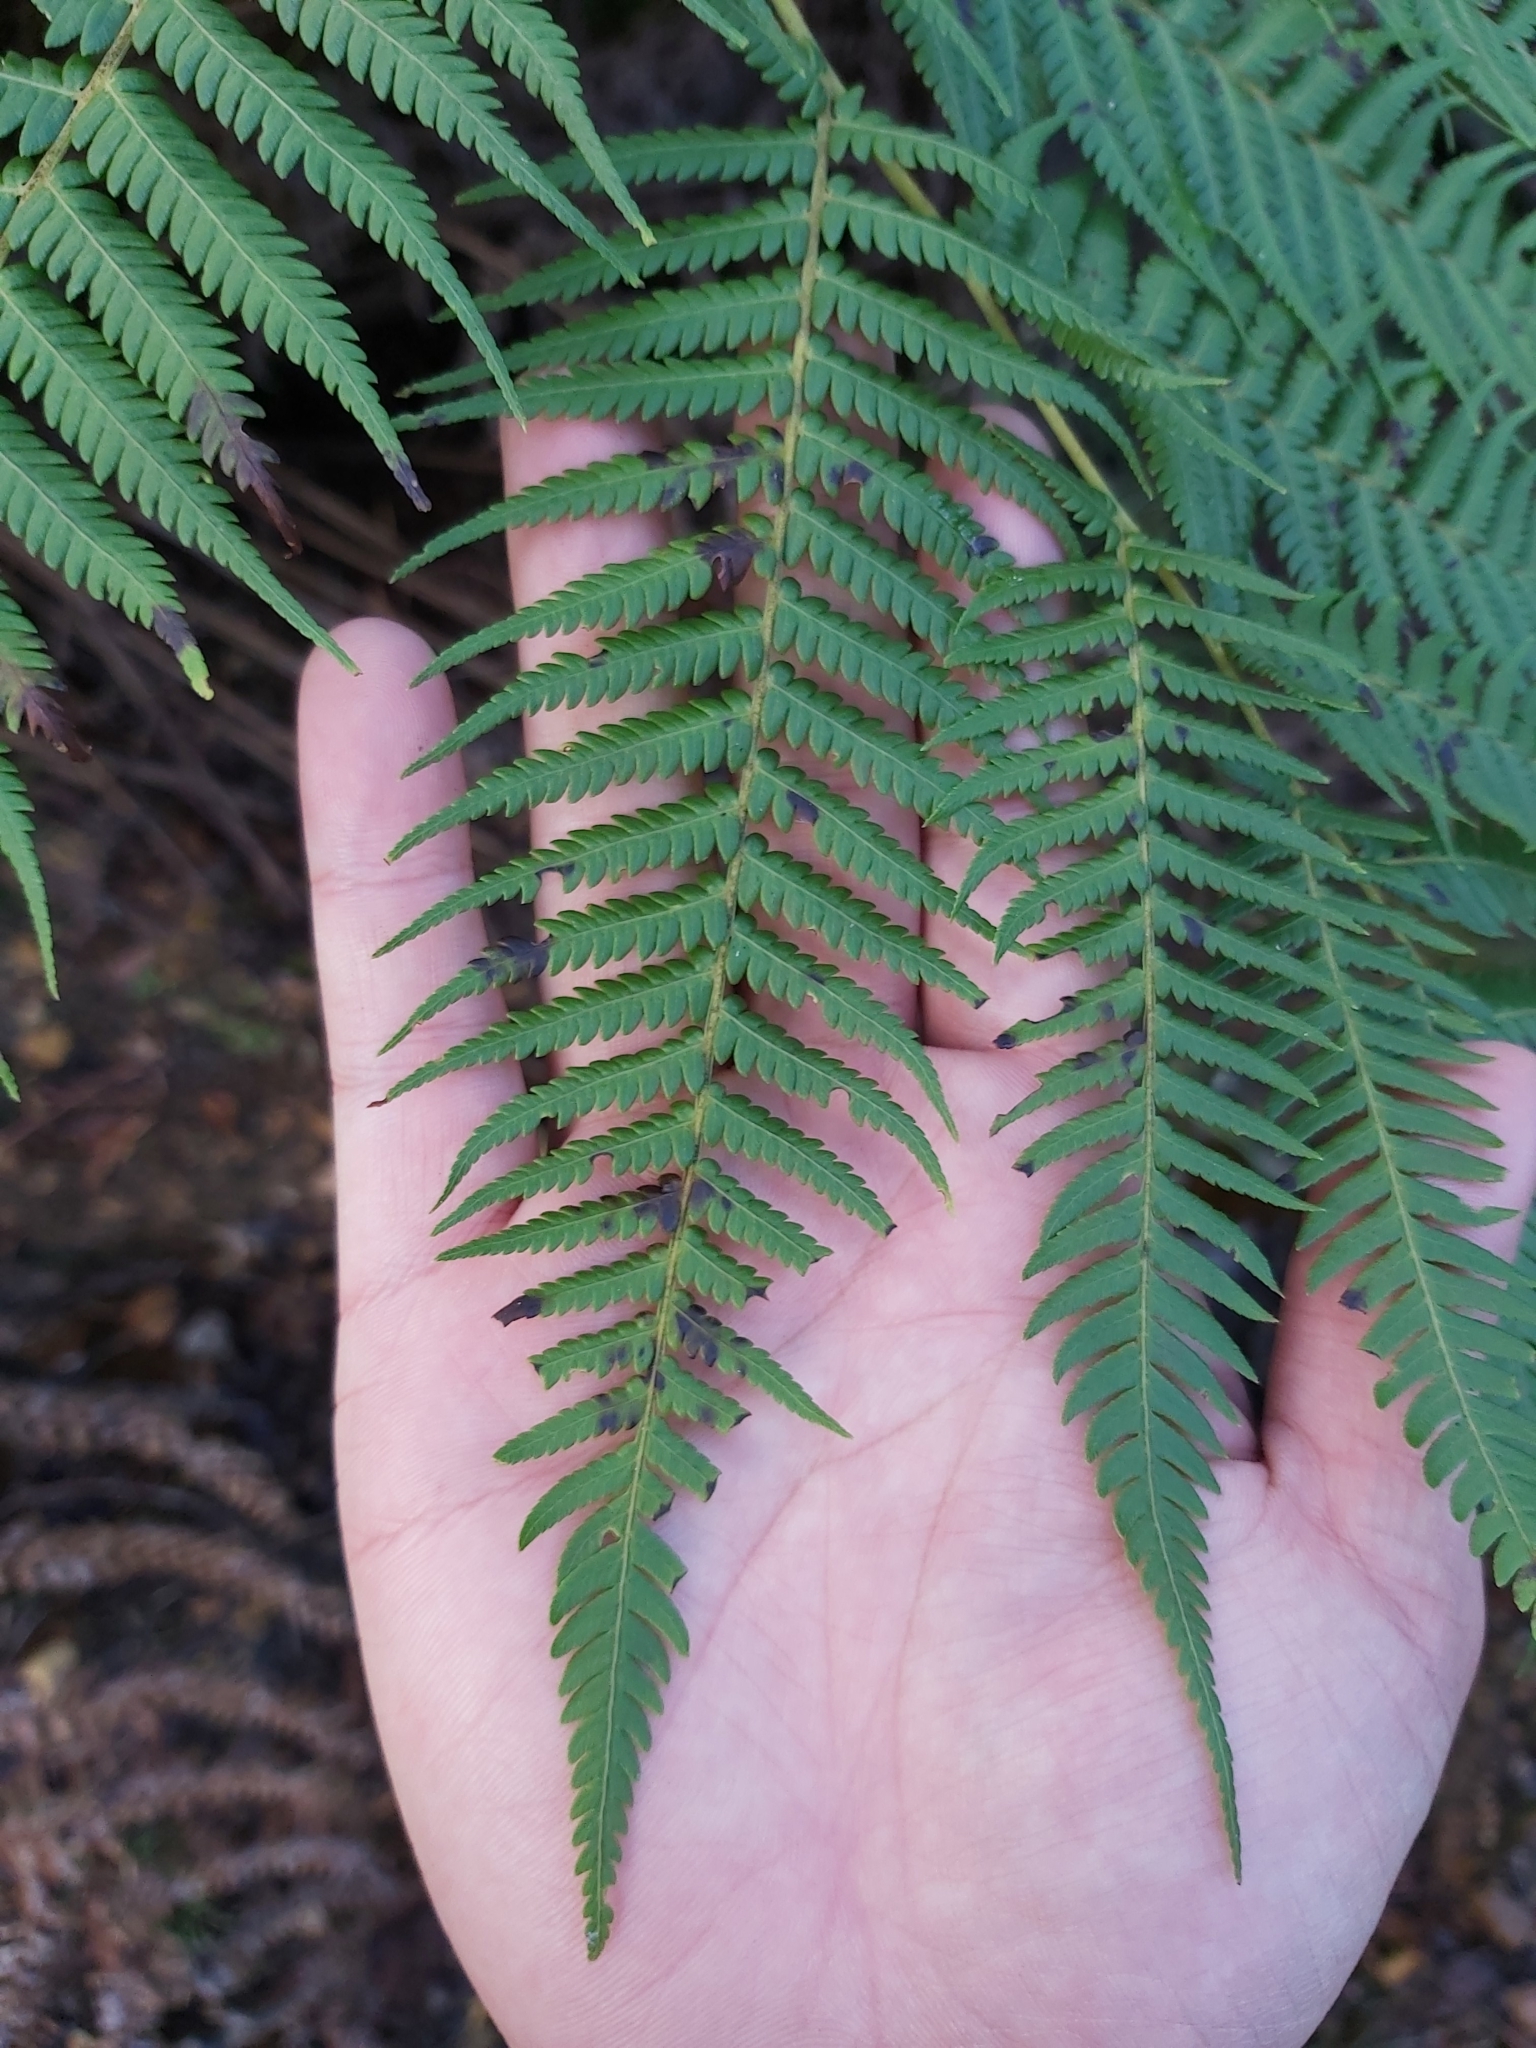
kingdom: Plantae
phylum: Tracheophyta
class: Polypodiopsida
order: Cyatheales
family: Cyatheaceae
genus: Alsophila
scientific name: Alsophila australis
